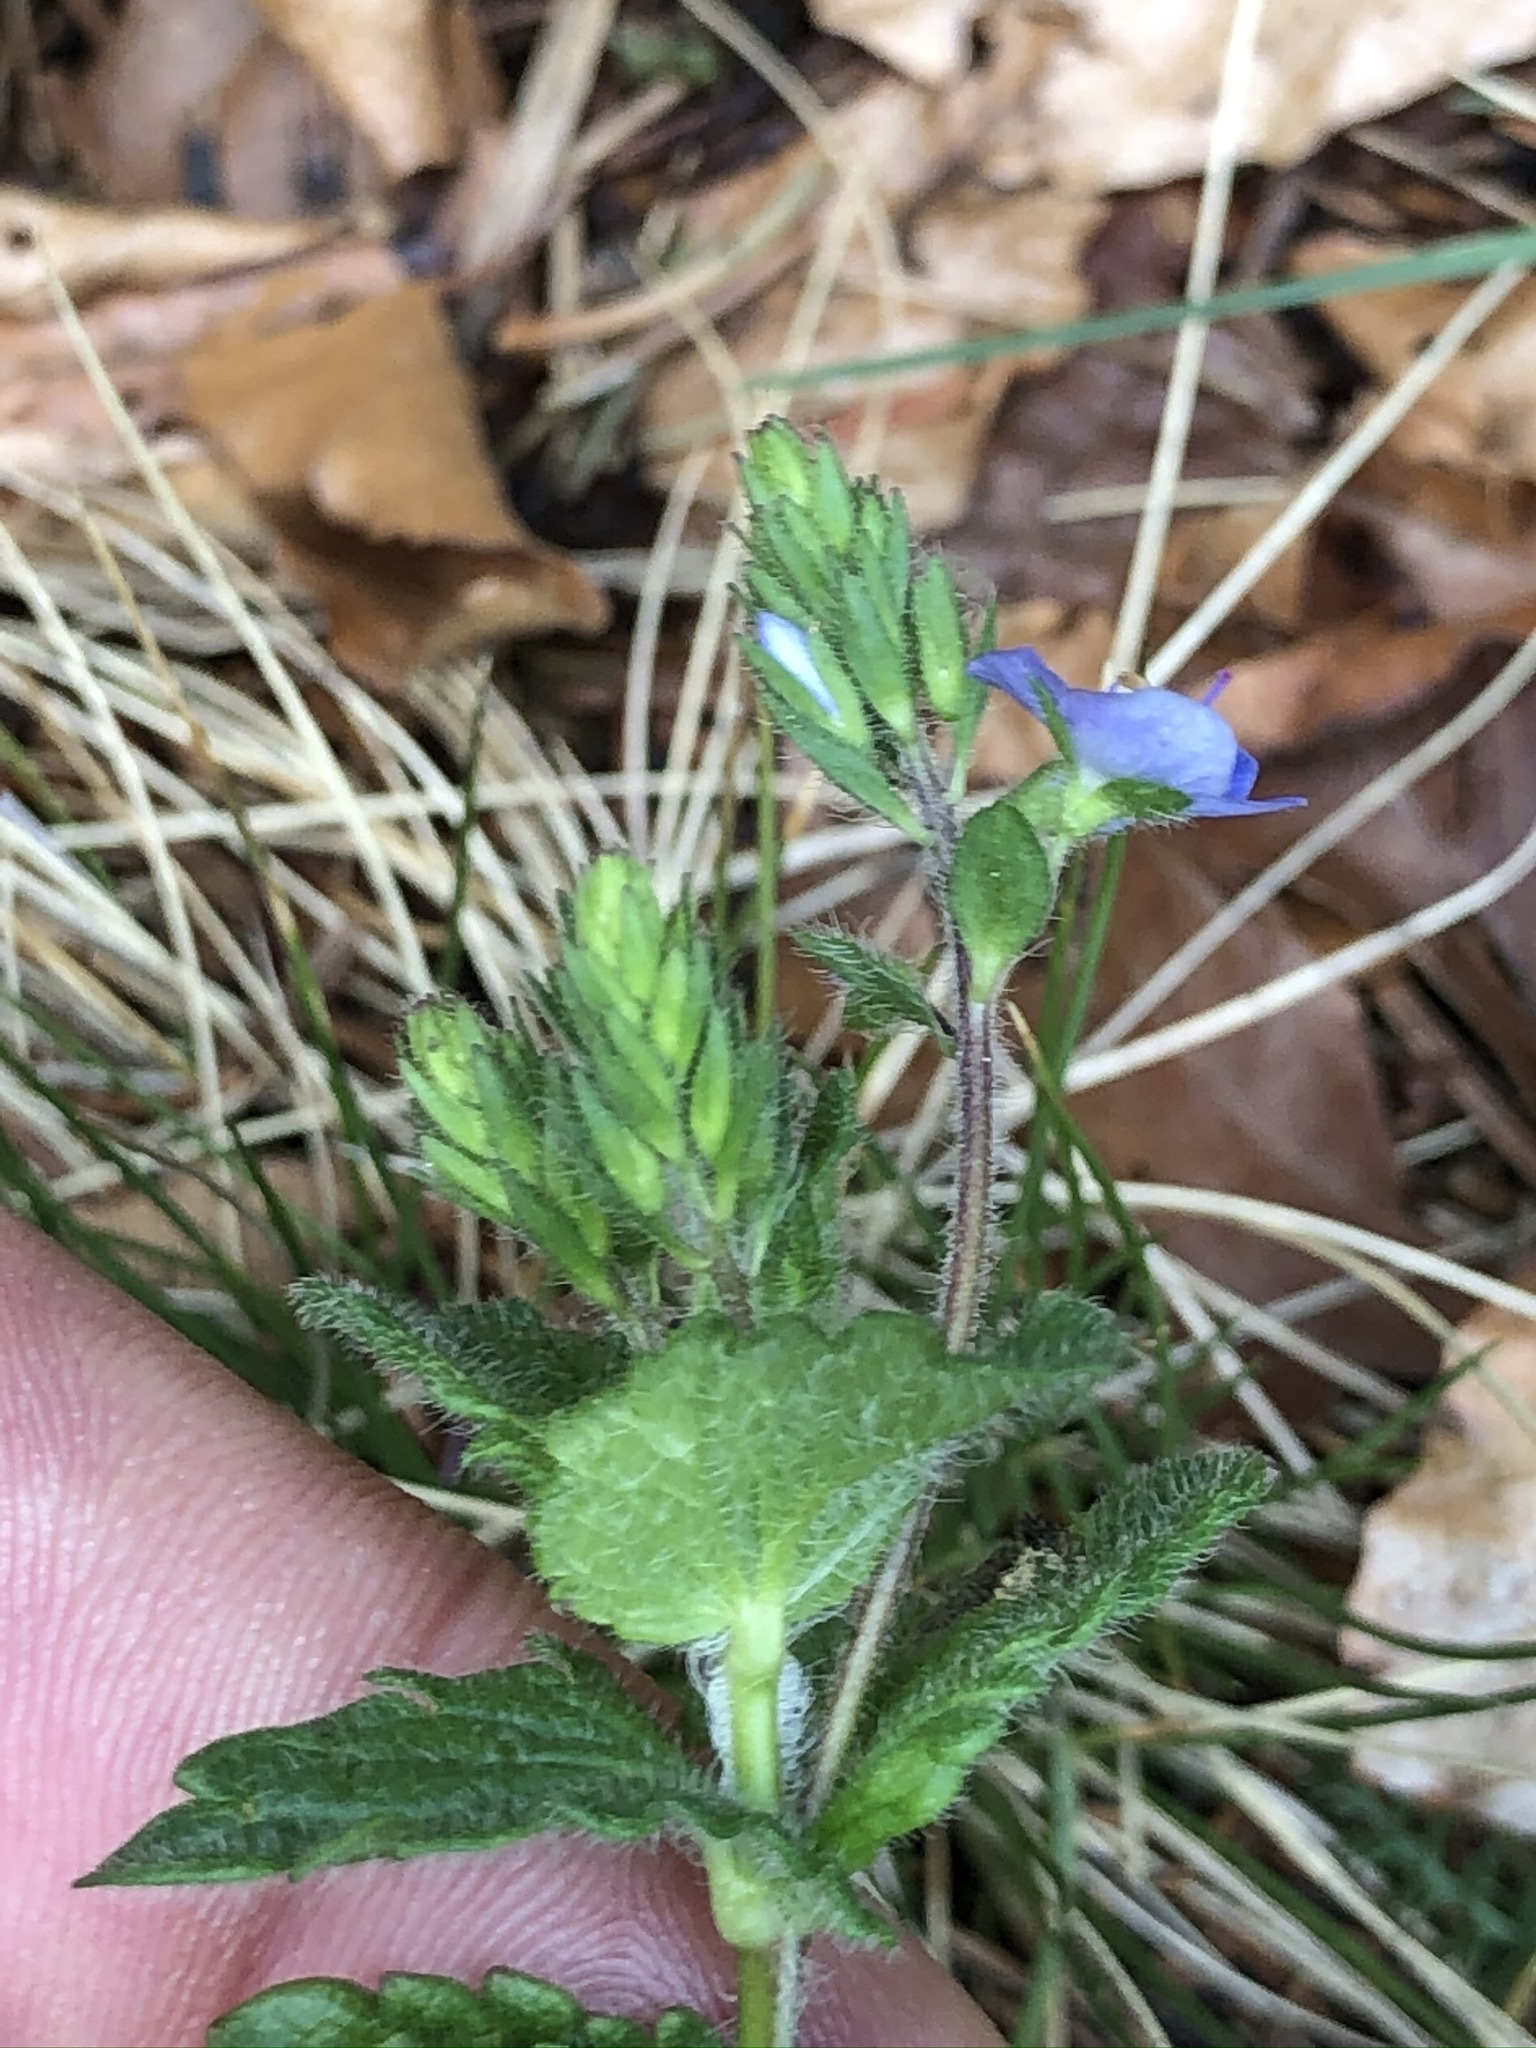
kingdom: Plantae
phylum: Tracheophyta
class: Magnoliopsida
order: Lamiales
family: Plantaginaceae
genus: Veronica
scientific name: Veronica chamaedrys
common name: Germander speedwell
